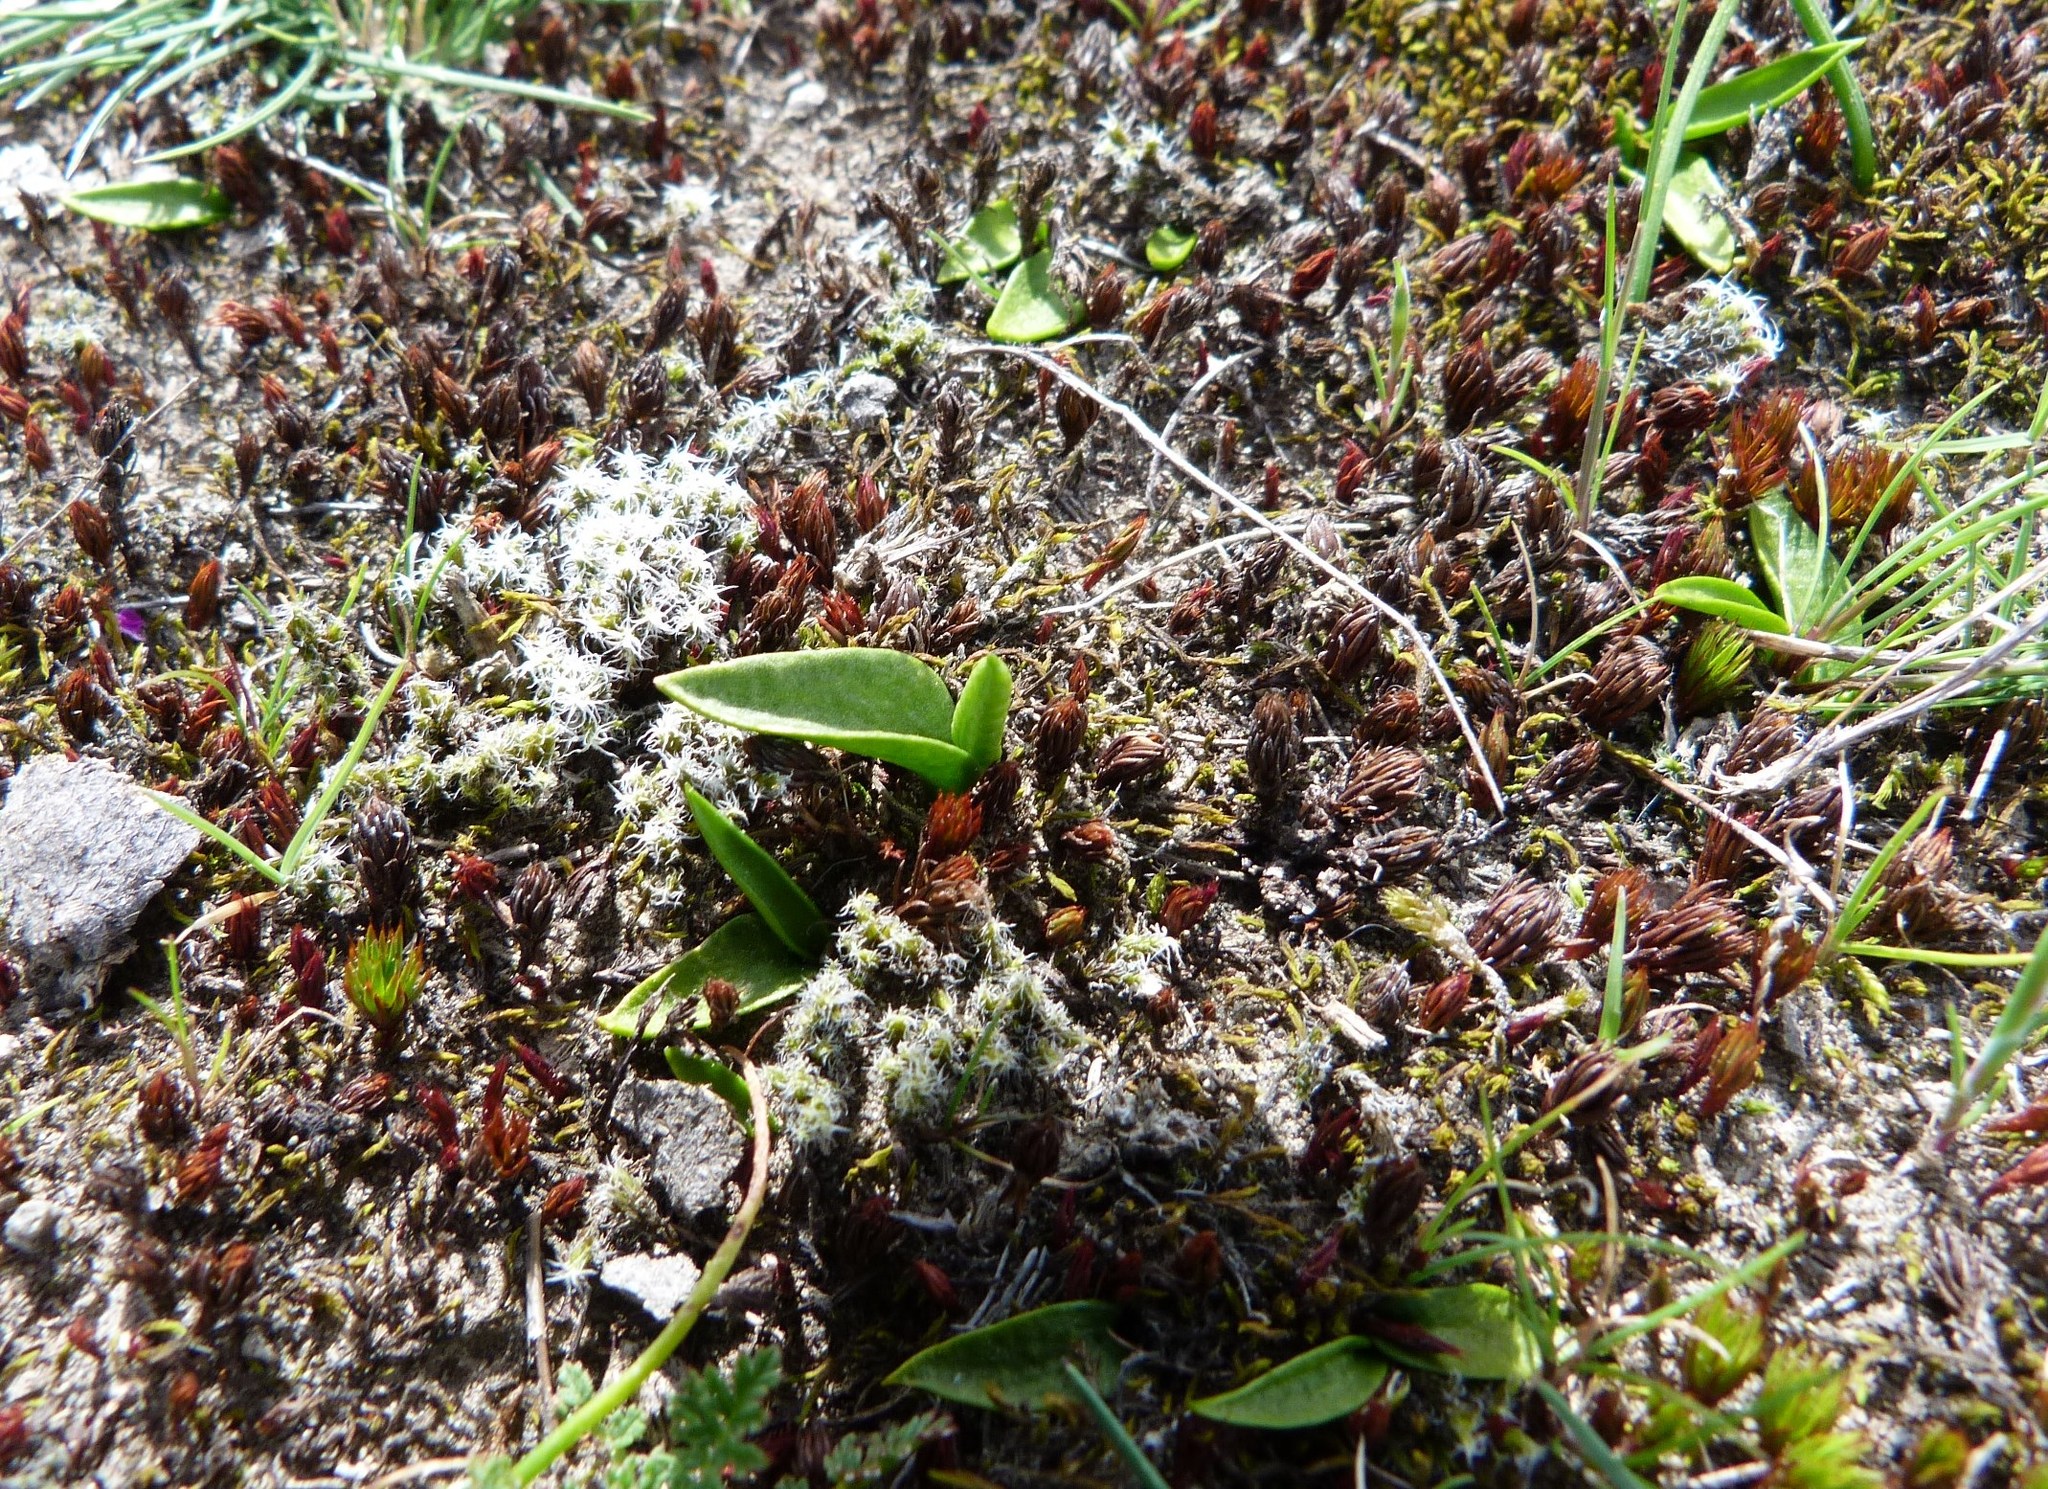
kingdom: Plantae
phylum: Tracheophyta
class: Polypodiopsida
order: Ophioglossales
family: Ophioglossaceae
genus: Ophioglossum
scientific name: Ophioglossum coriaceum
